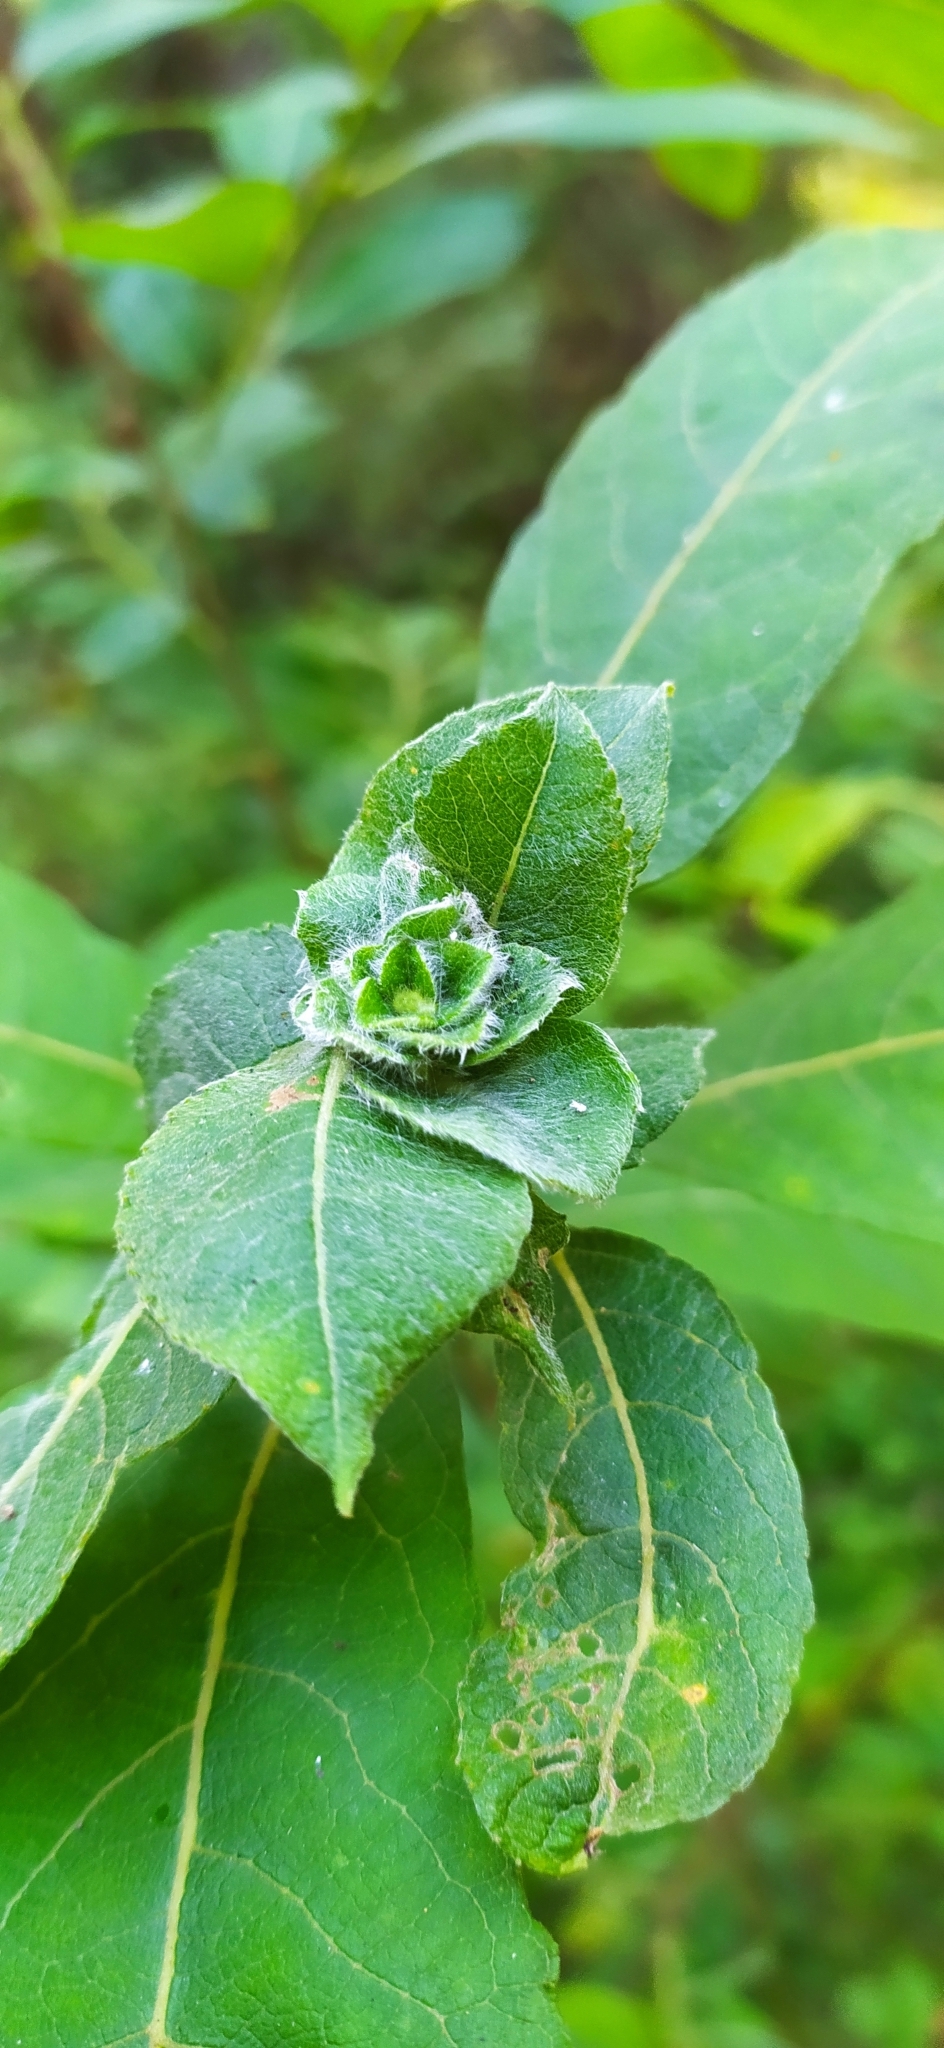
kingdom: Animalia
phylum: Arthropoda
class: Insecta
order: Diptera
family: Cecidomyiidae
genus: Rabdophaga
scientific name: Rabdophaga rosaria
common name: Willow rose gall midge
